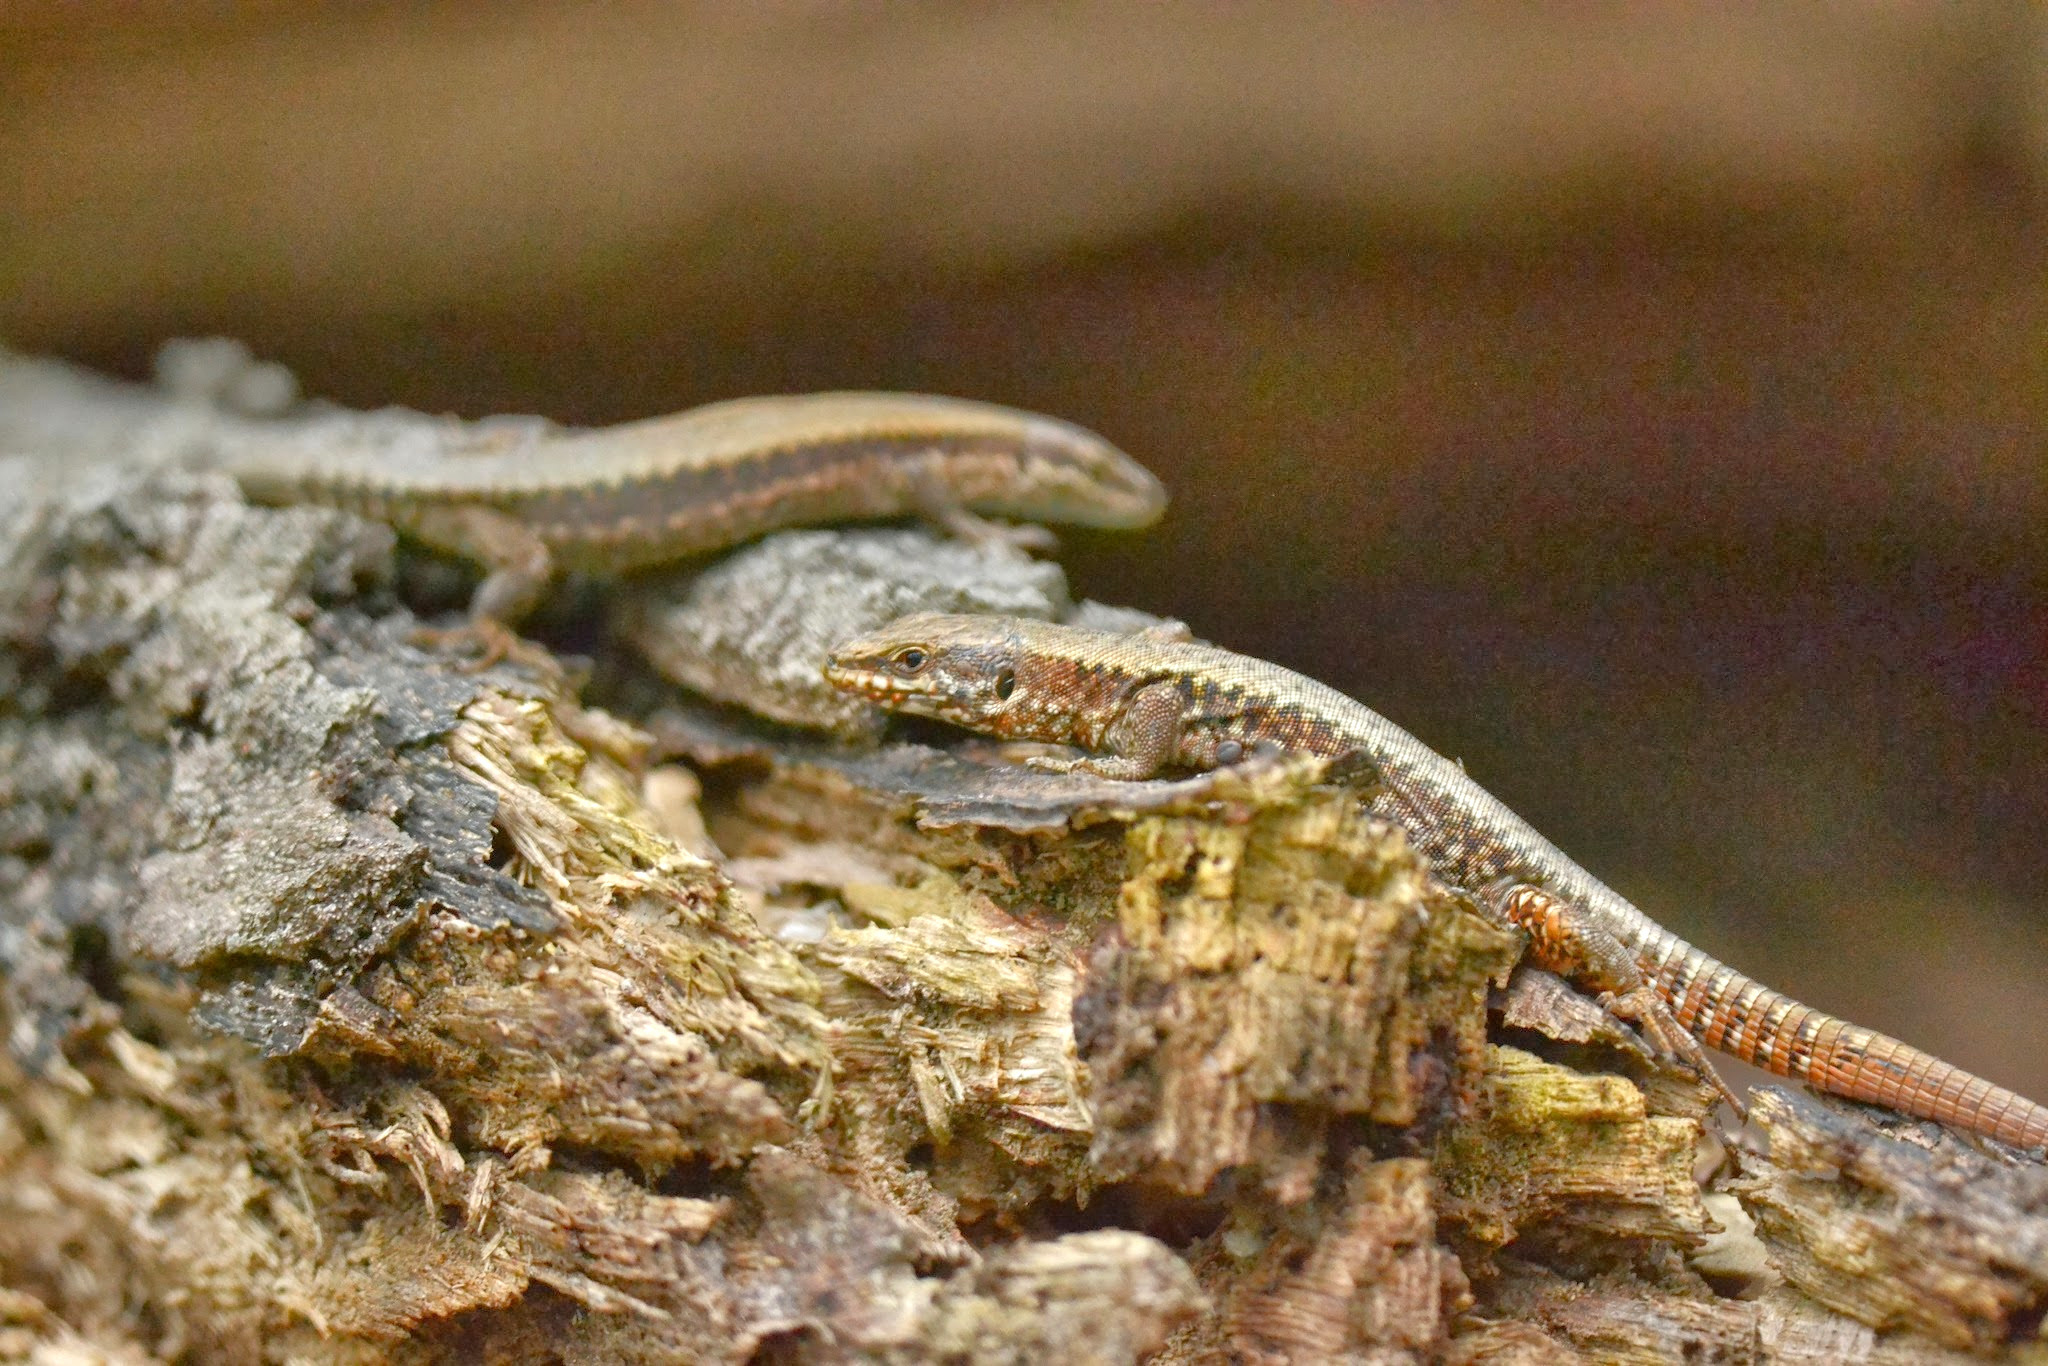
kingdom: Animalia
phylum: Chordata
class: Squamata
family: Lacertidae
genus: Podarcis
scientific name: Podarcis muralis
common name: Common wall lizard
